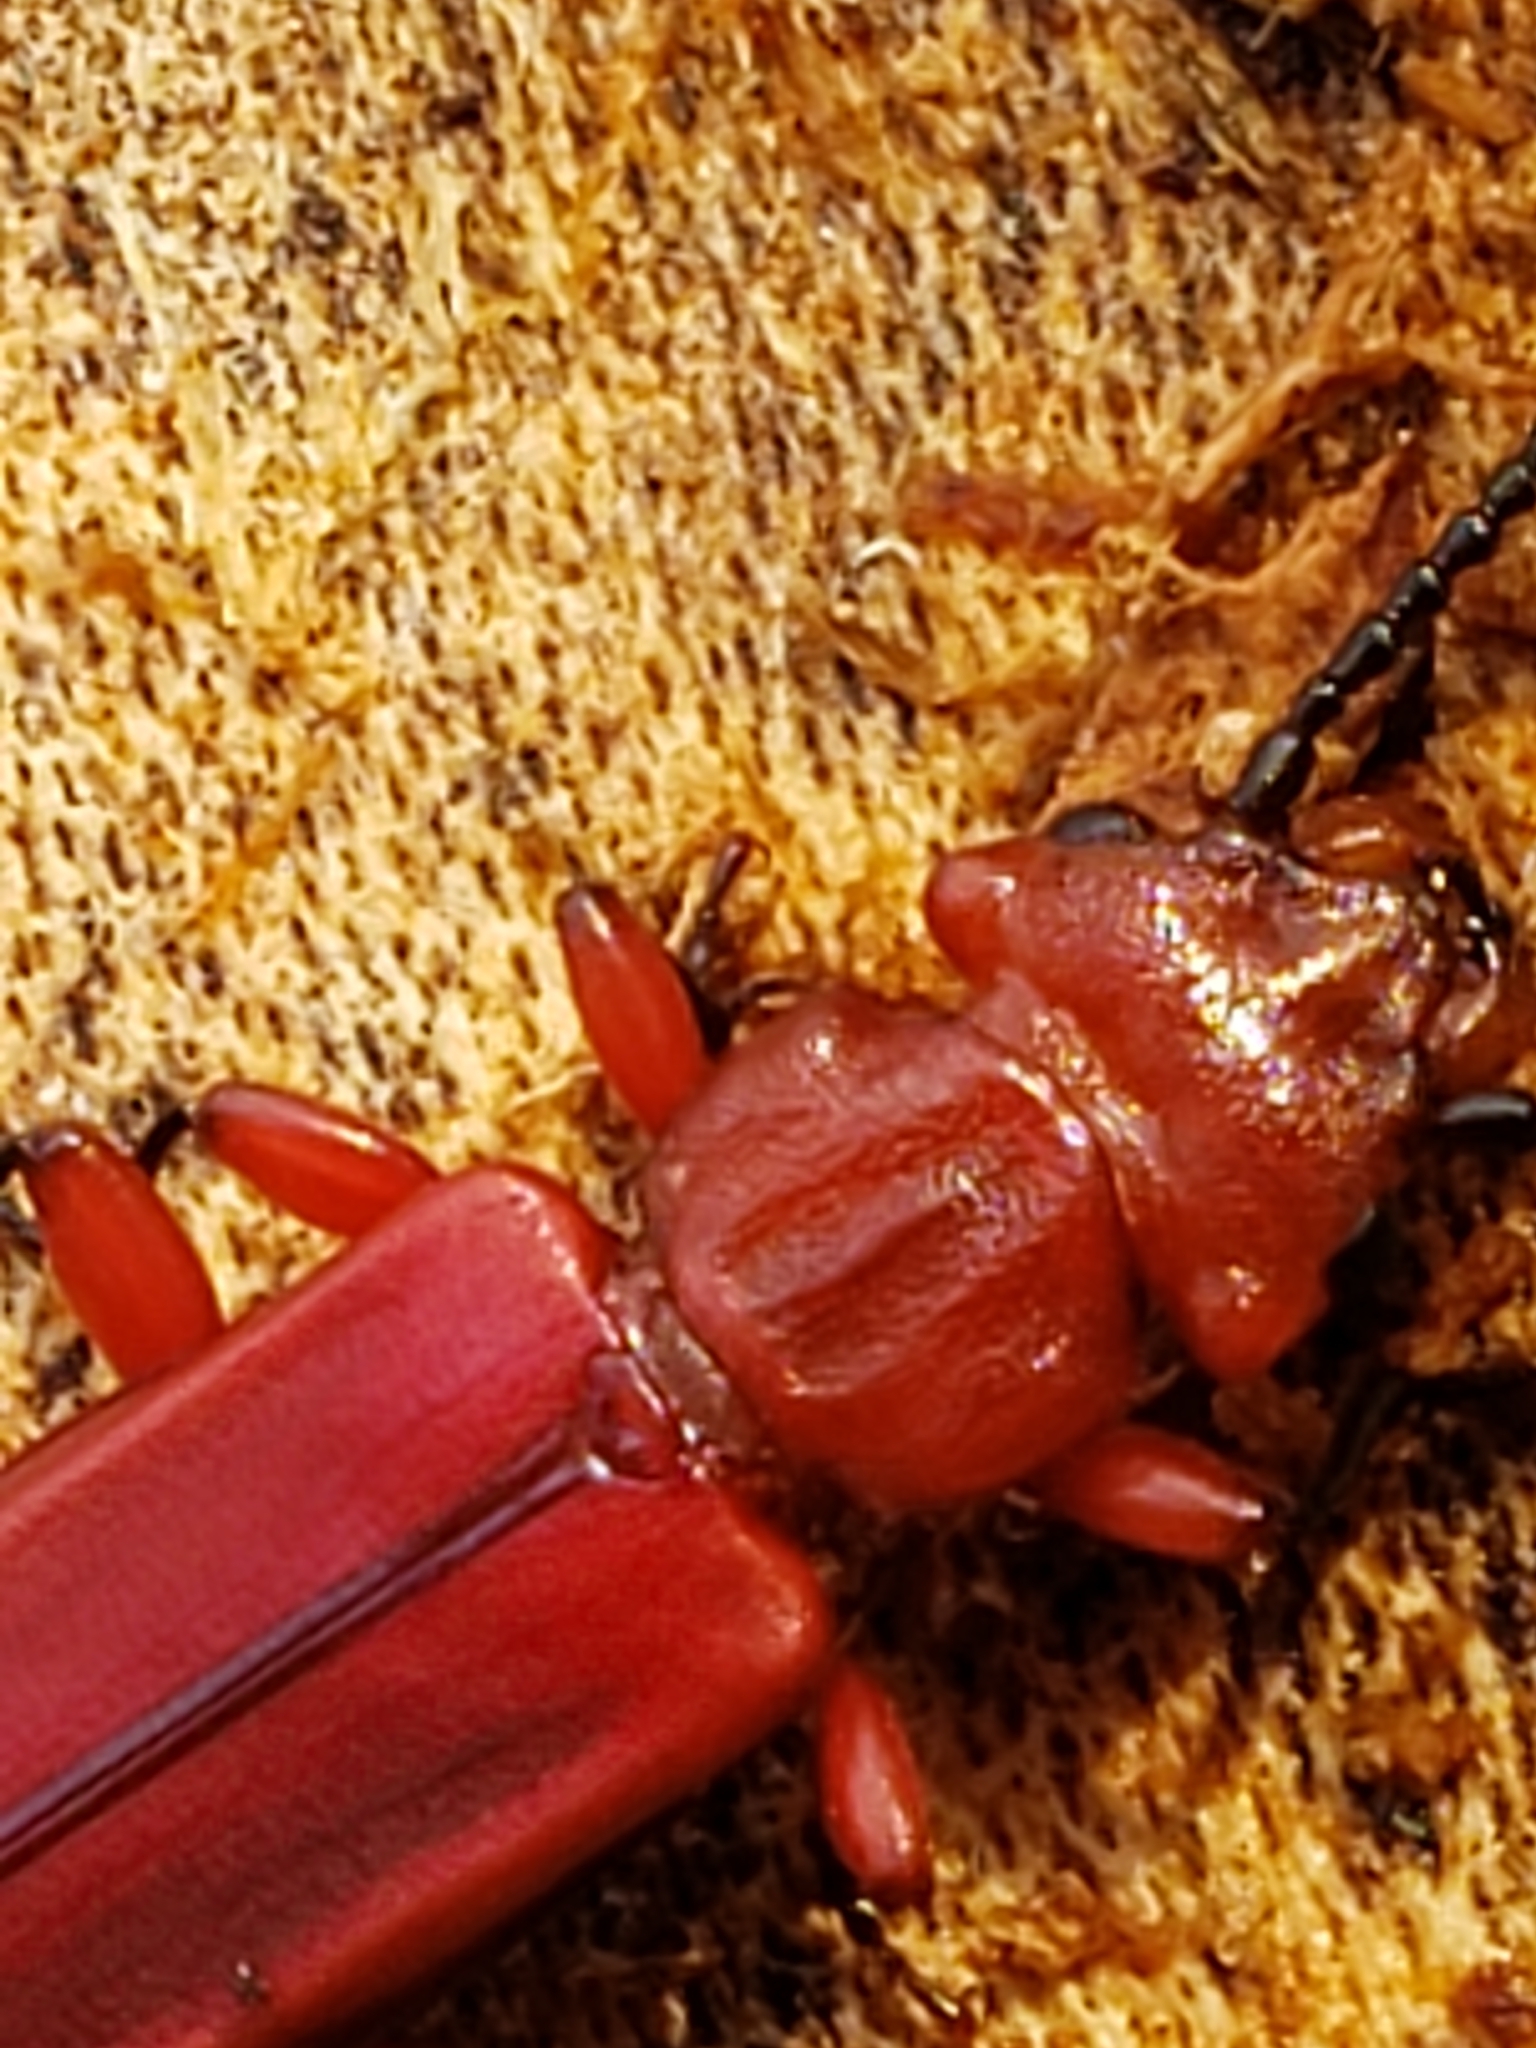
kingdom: Animalia
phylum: Arthropoda
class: Insecta
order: Coleoptera
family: Cucujidae
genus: Cucujus
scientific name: Cucujus clavipes
